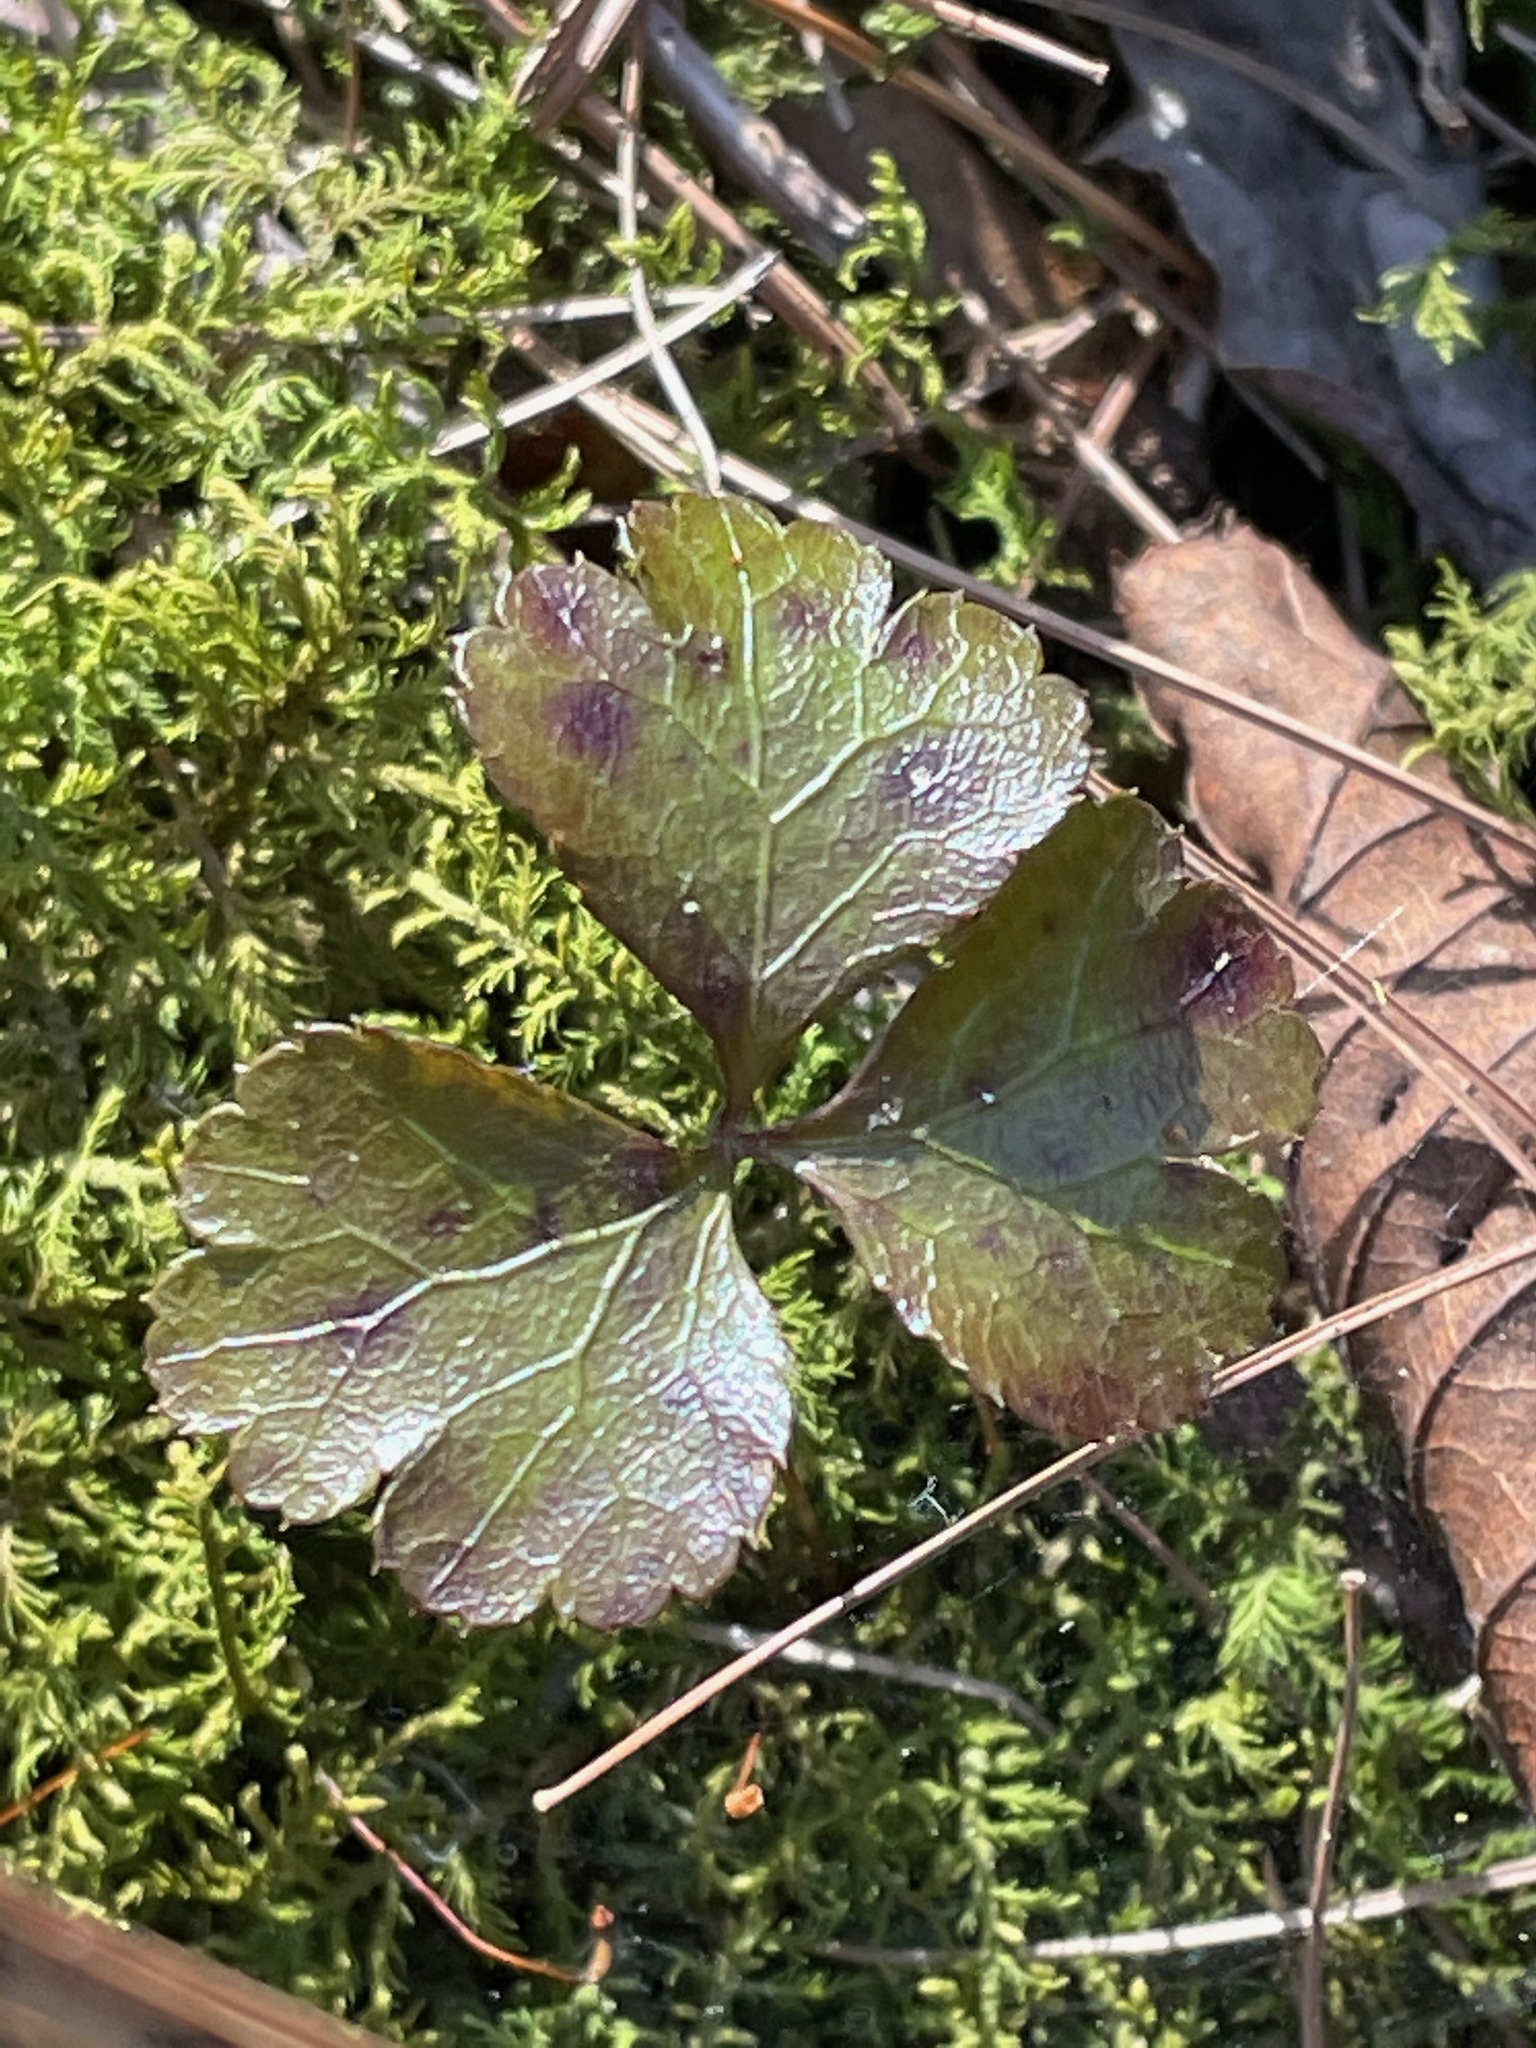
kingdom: Plantae
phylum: Tracheophyta
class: Magnoliopsida
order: Ranunculales
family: Ranunculaceae
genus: Coptis
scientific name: Coptis trifolia
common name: Canker-root
